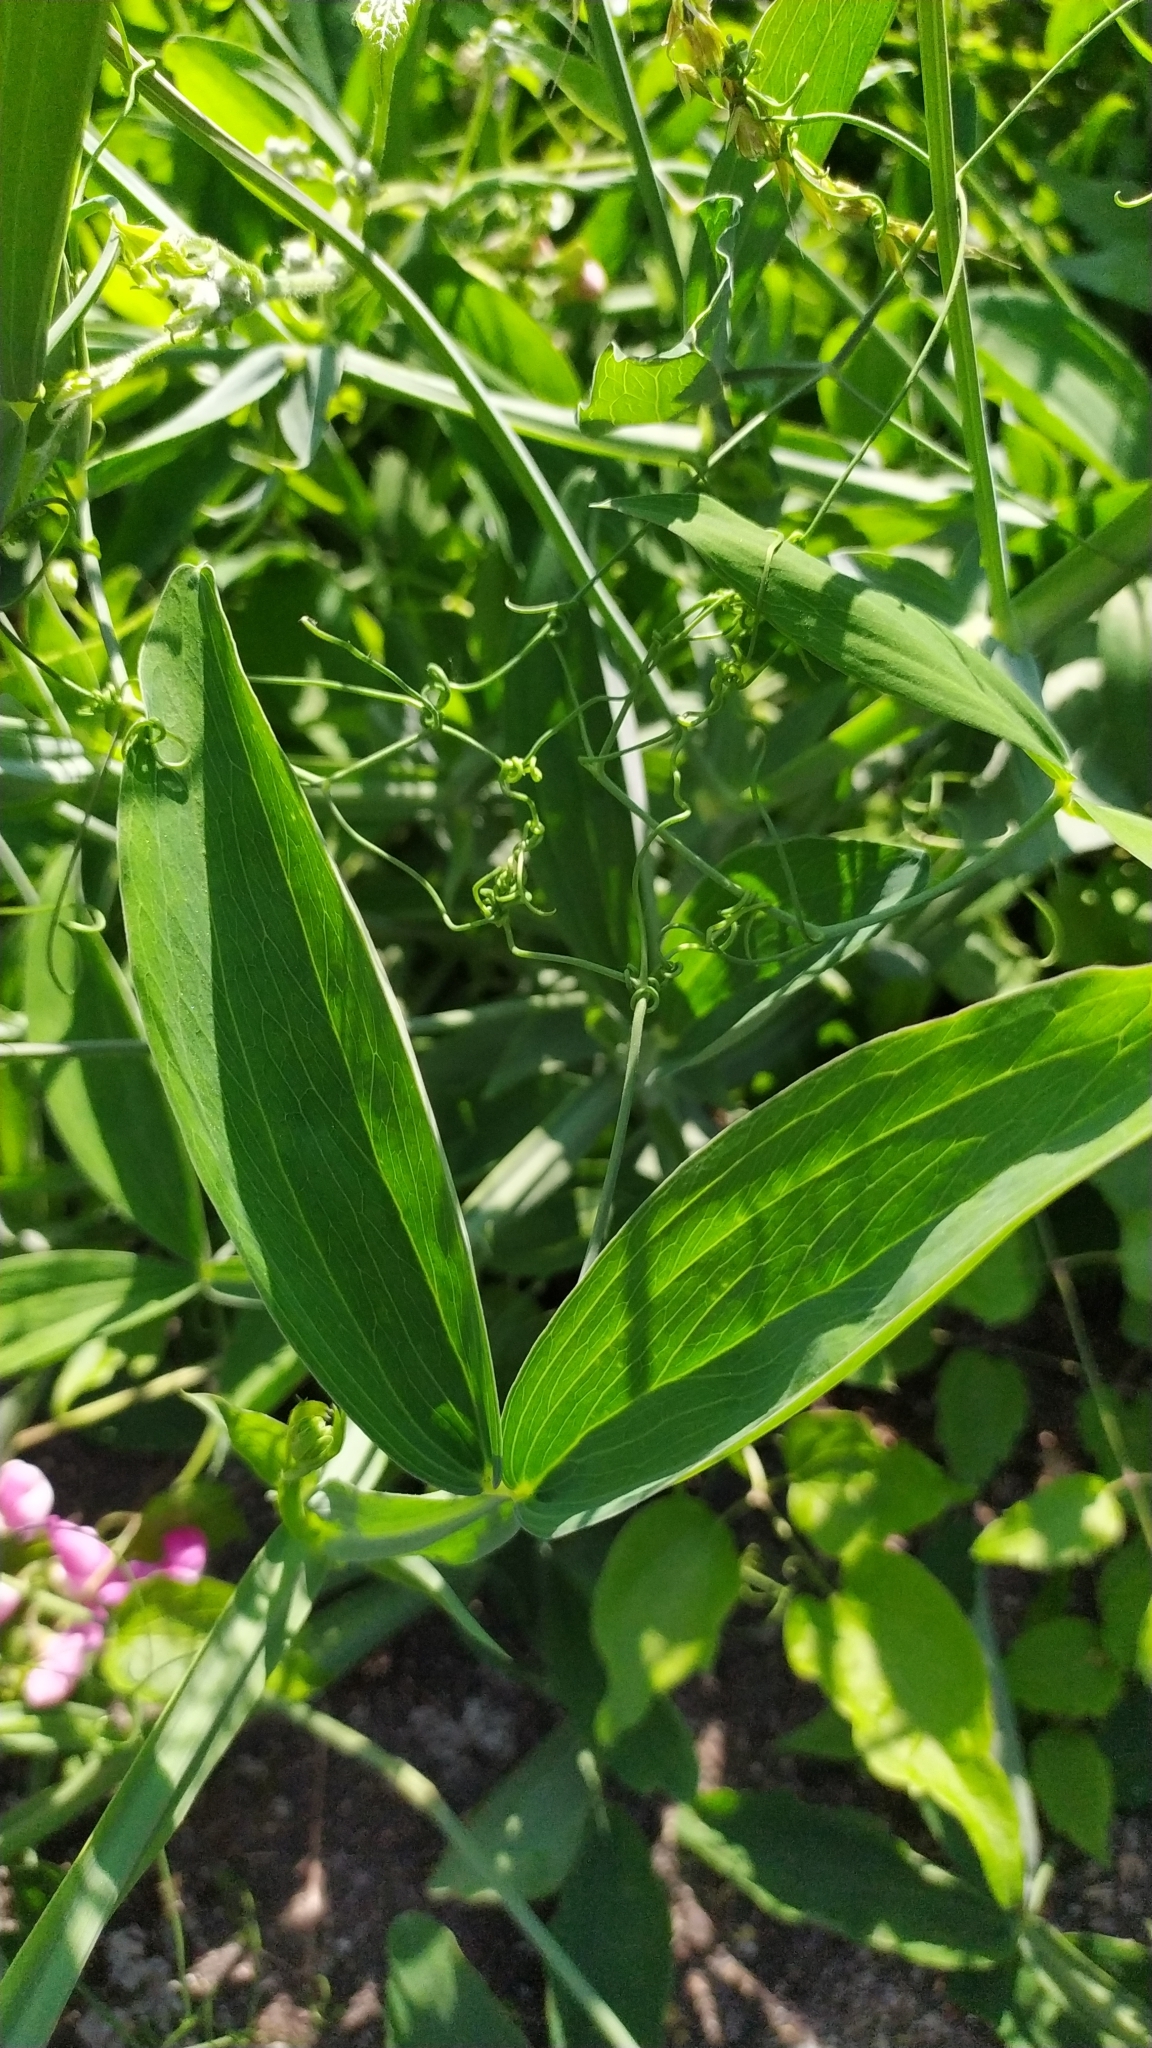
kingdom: Plantae
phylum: Tracheophyta
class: Magnoliopsida
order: Fabales
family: Fabaceae
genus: Lathyrus
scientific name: Lathyrus latifolius
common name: Perennial pea
